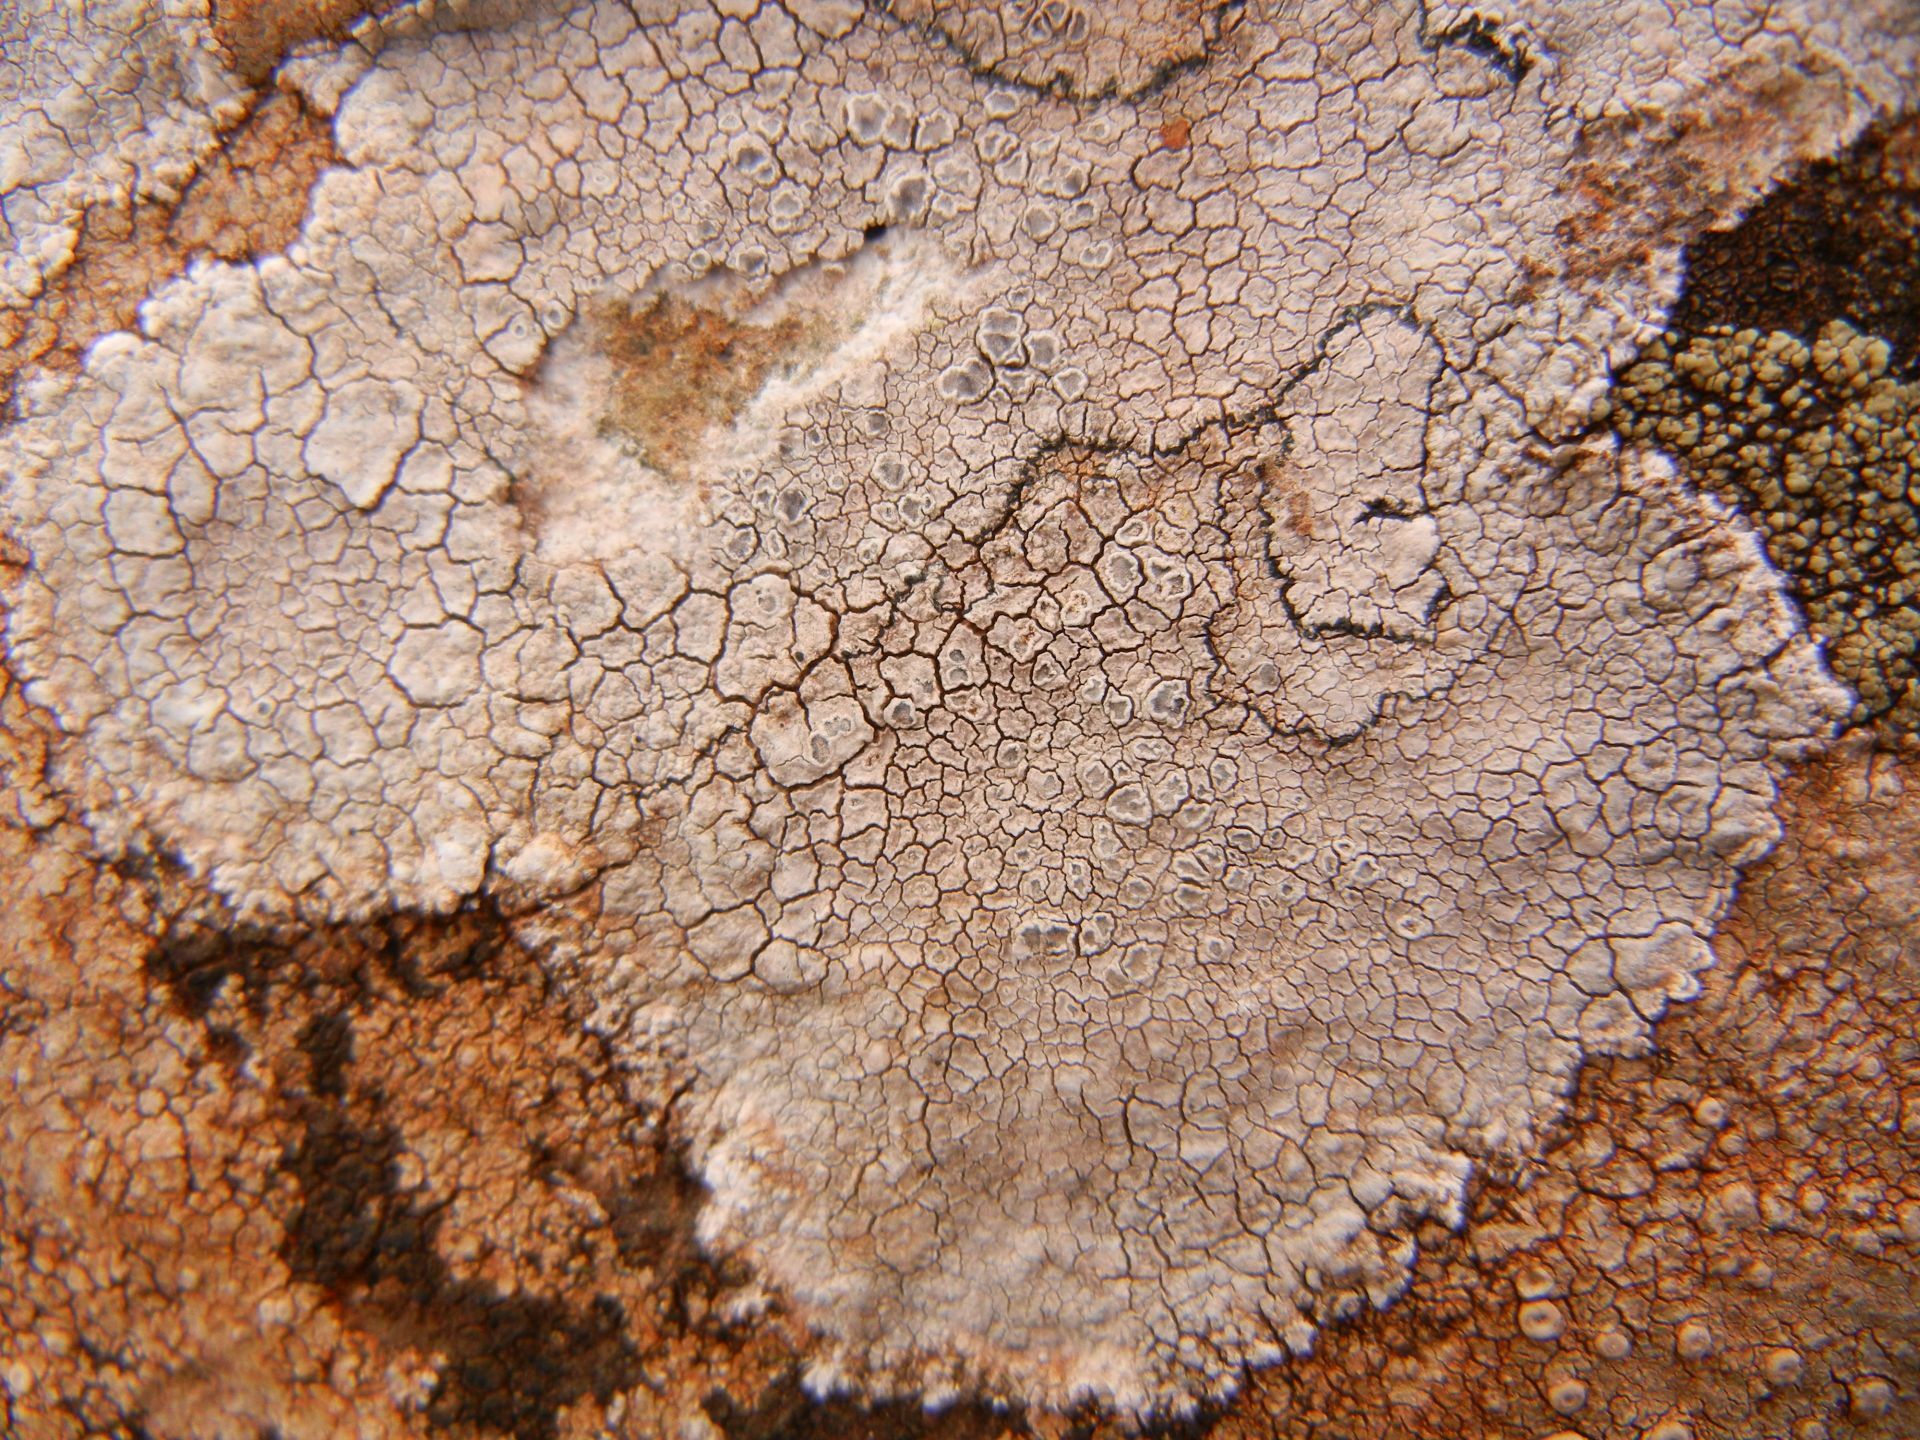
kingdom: Fungi
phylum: Ascomycota
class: Lecanoromycetes
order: Lecanorales
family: Lecanoraceae
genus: Glaucomaria
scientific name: Glaucomaria rupicola
